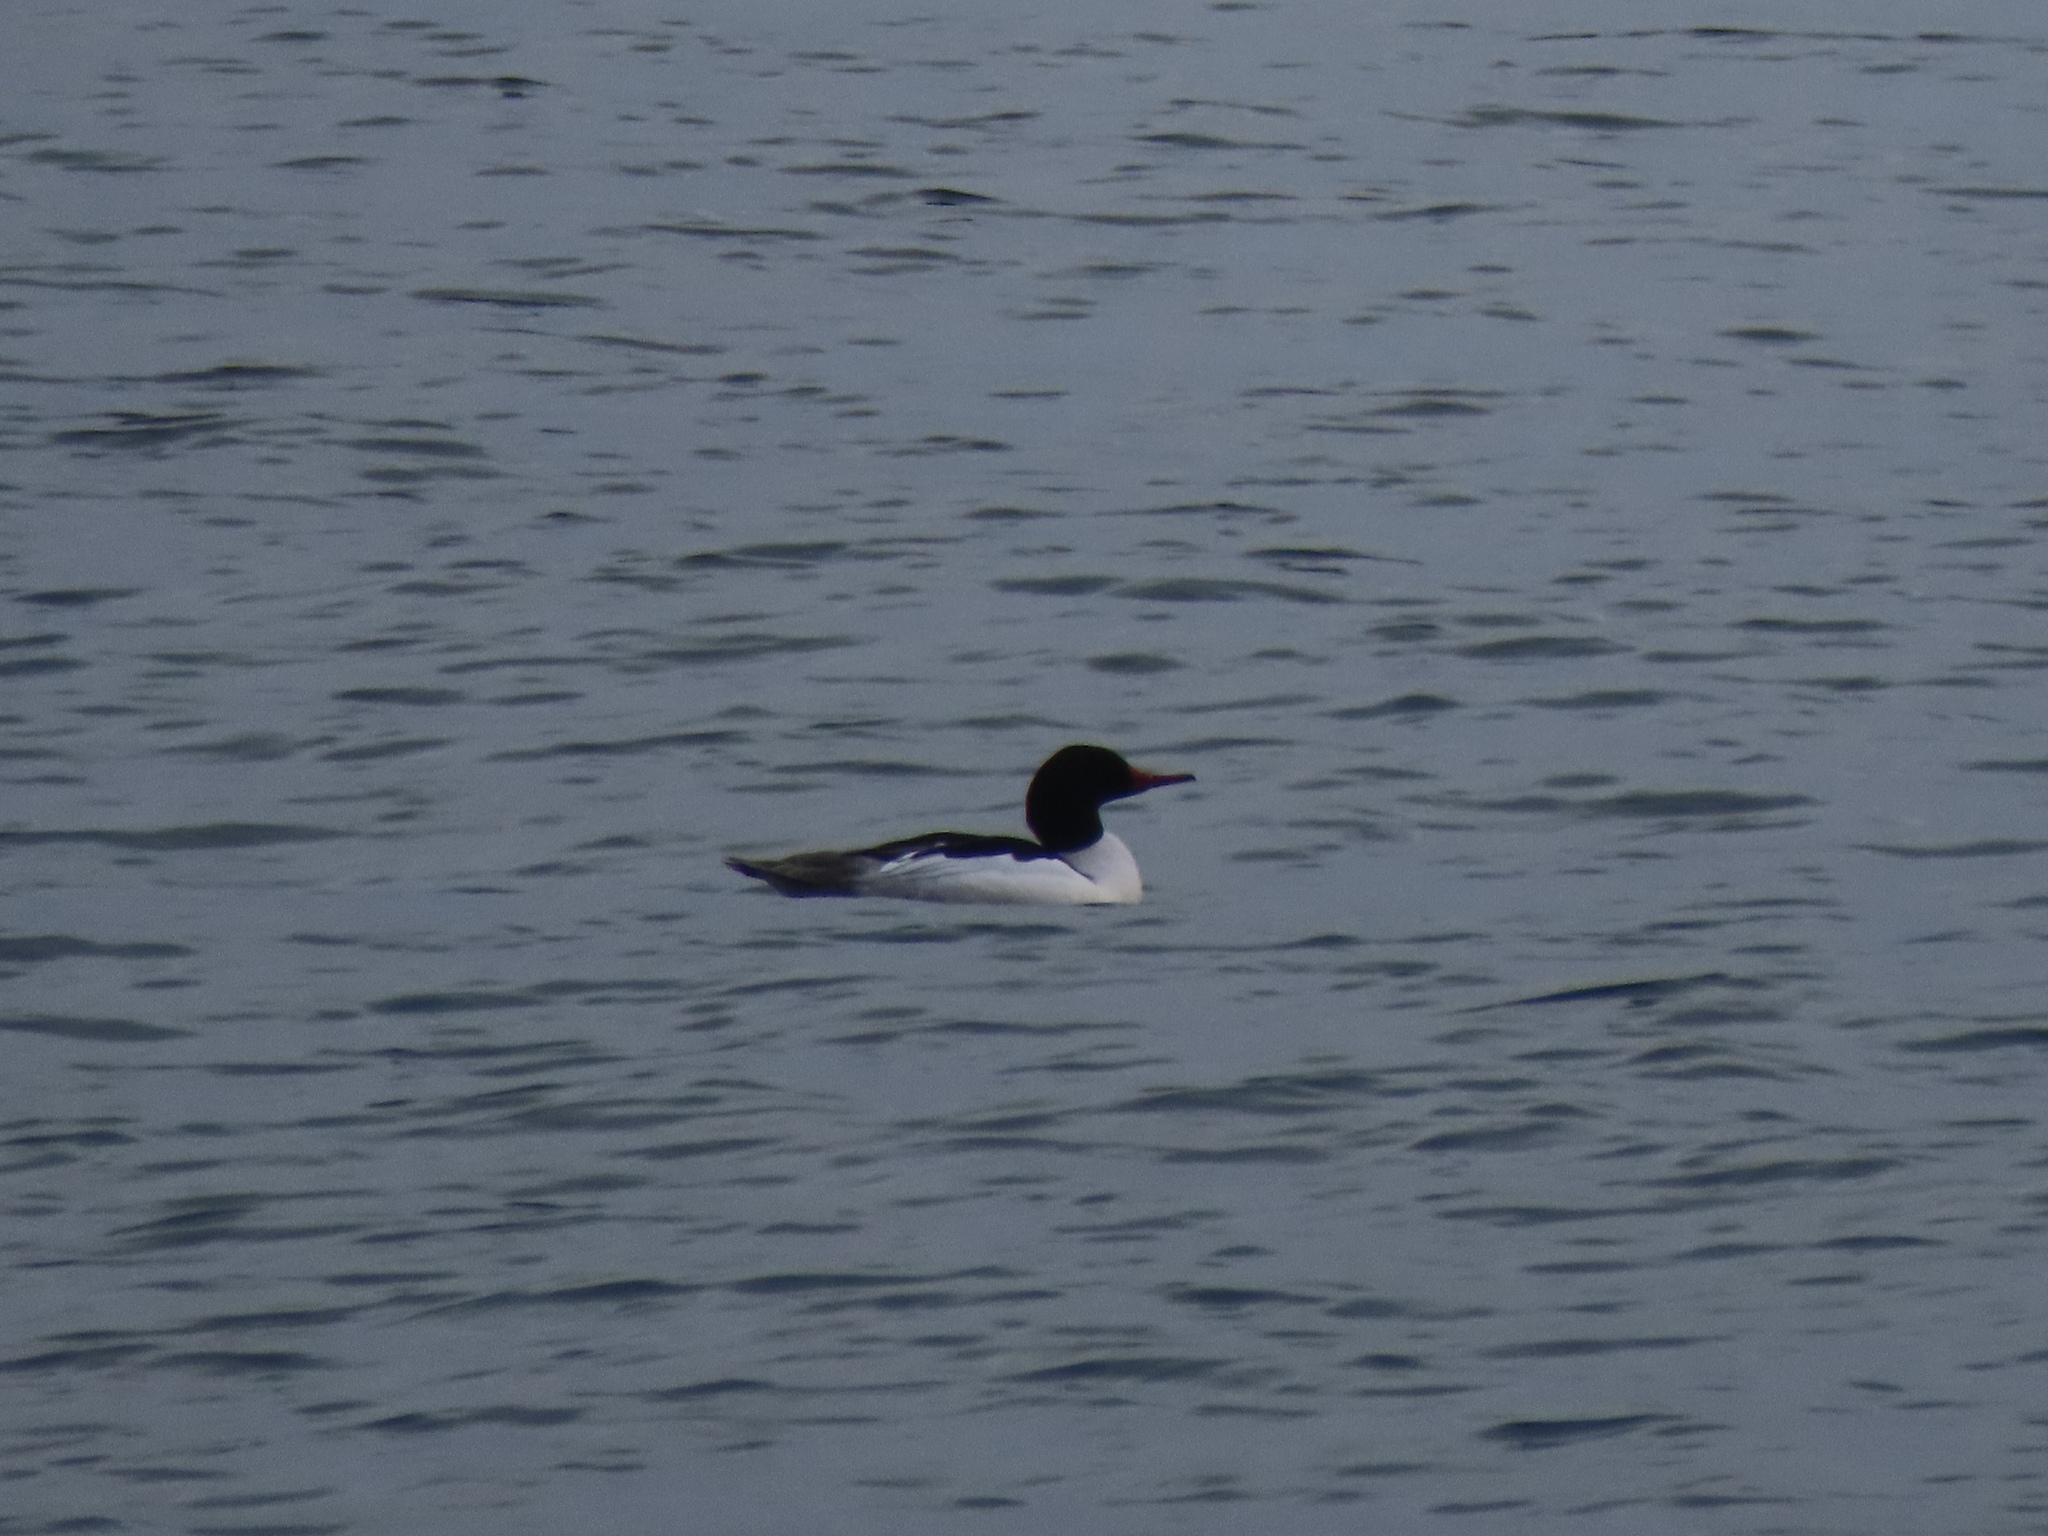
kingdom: Animalia
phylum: Chordata
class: Aves
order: Anseriformes
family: Anatidae
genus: Mergus
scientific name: Mergus merganser
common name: Common merganser
